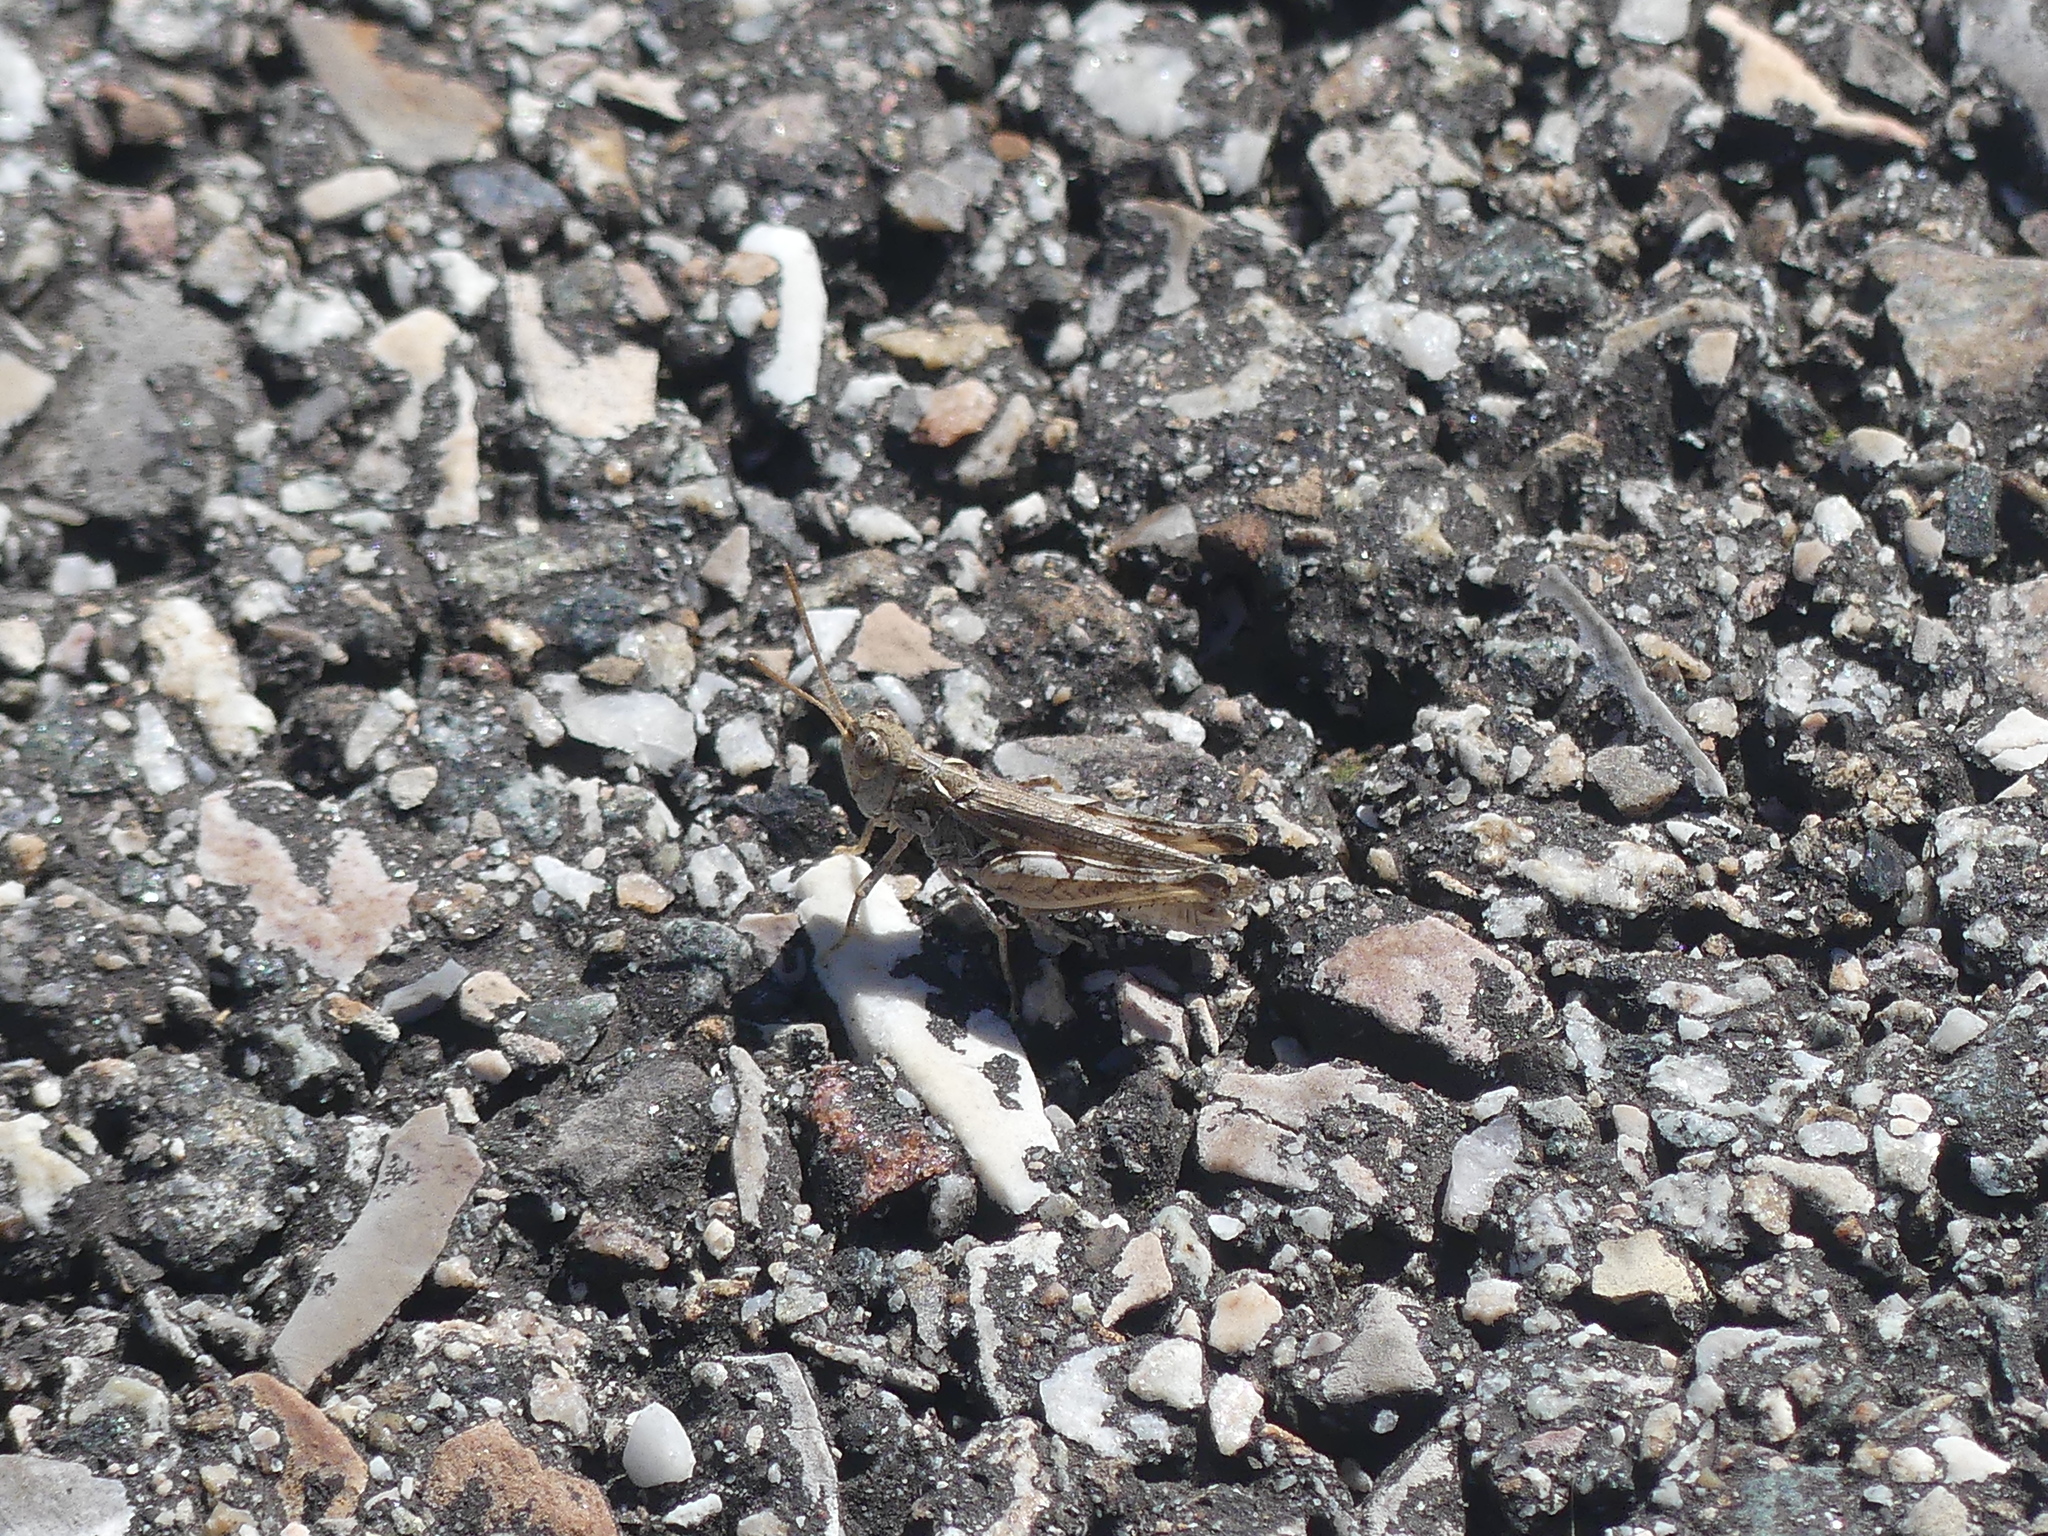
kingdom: Animalia
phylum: Arthropoda
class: Insecta
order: Orthoptera
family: Acrididae
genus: Dociostaurus
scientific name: Dociostaurus genei
